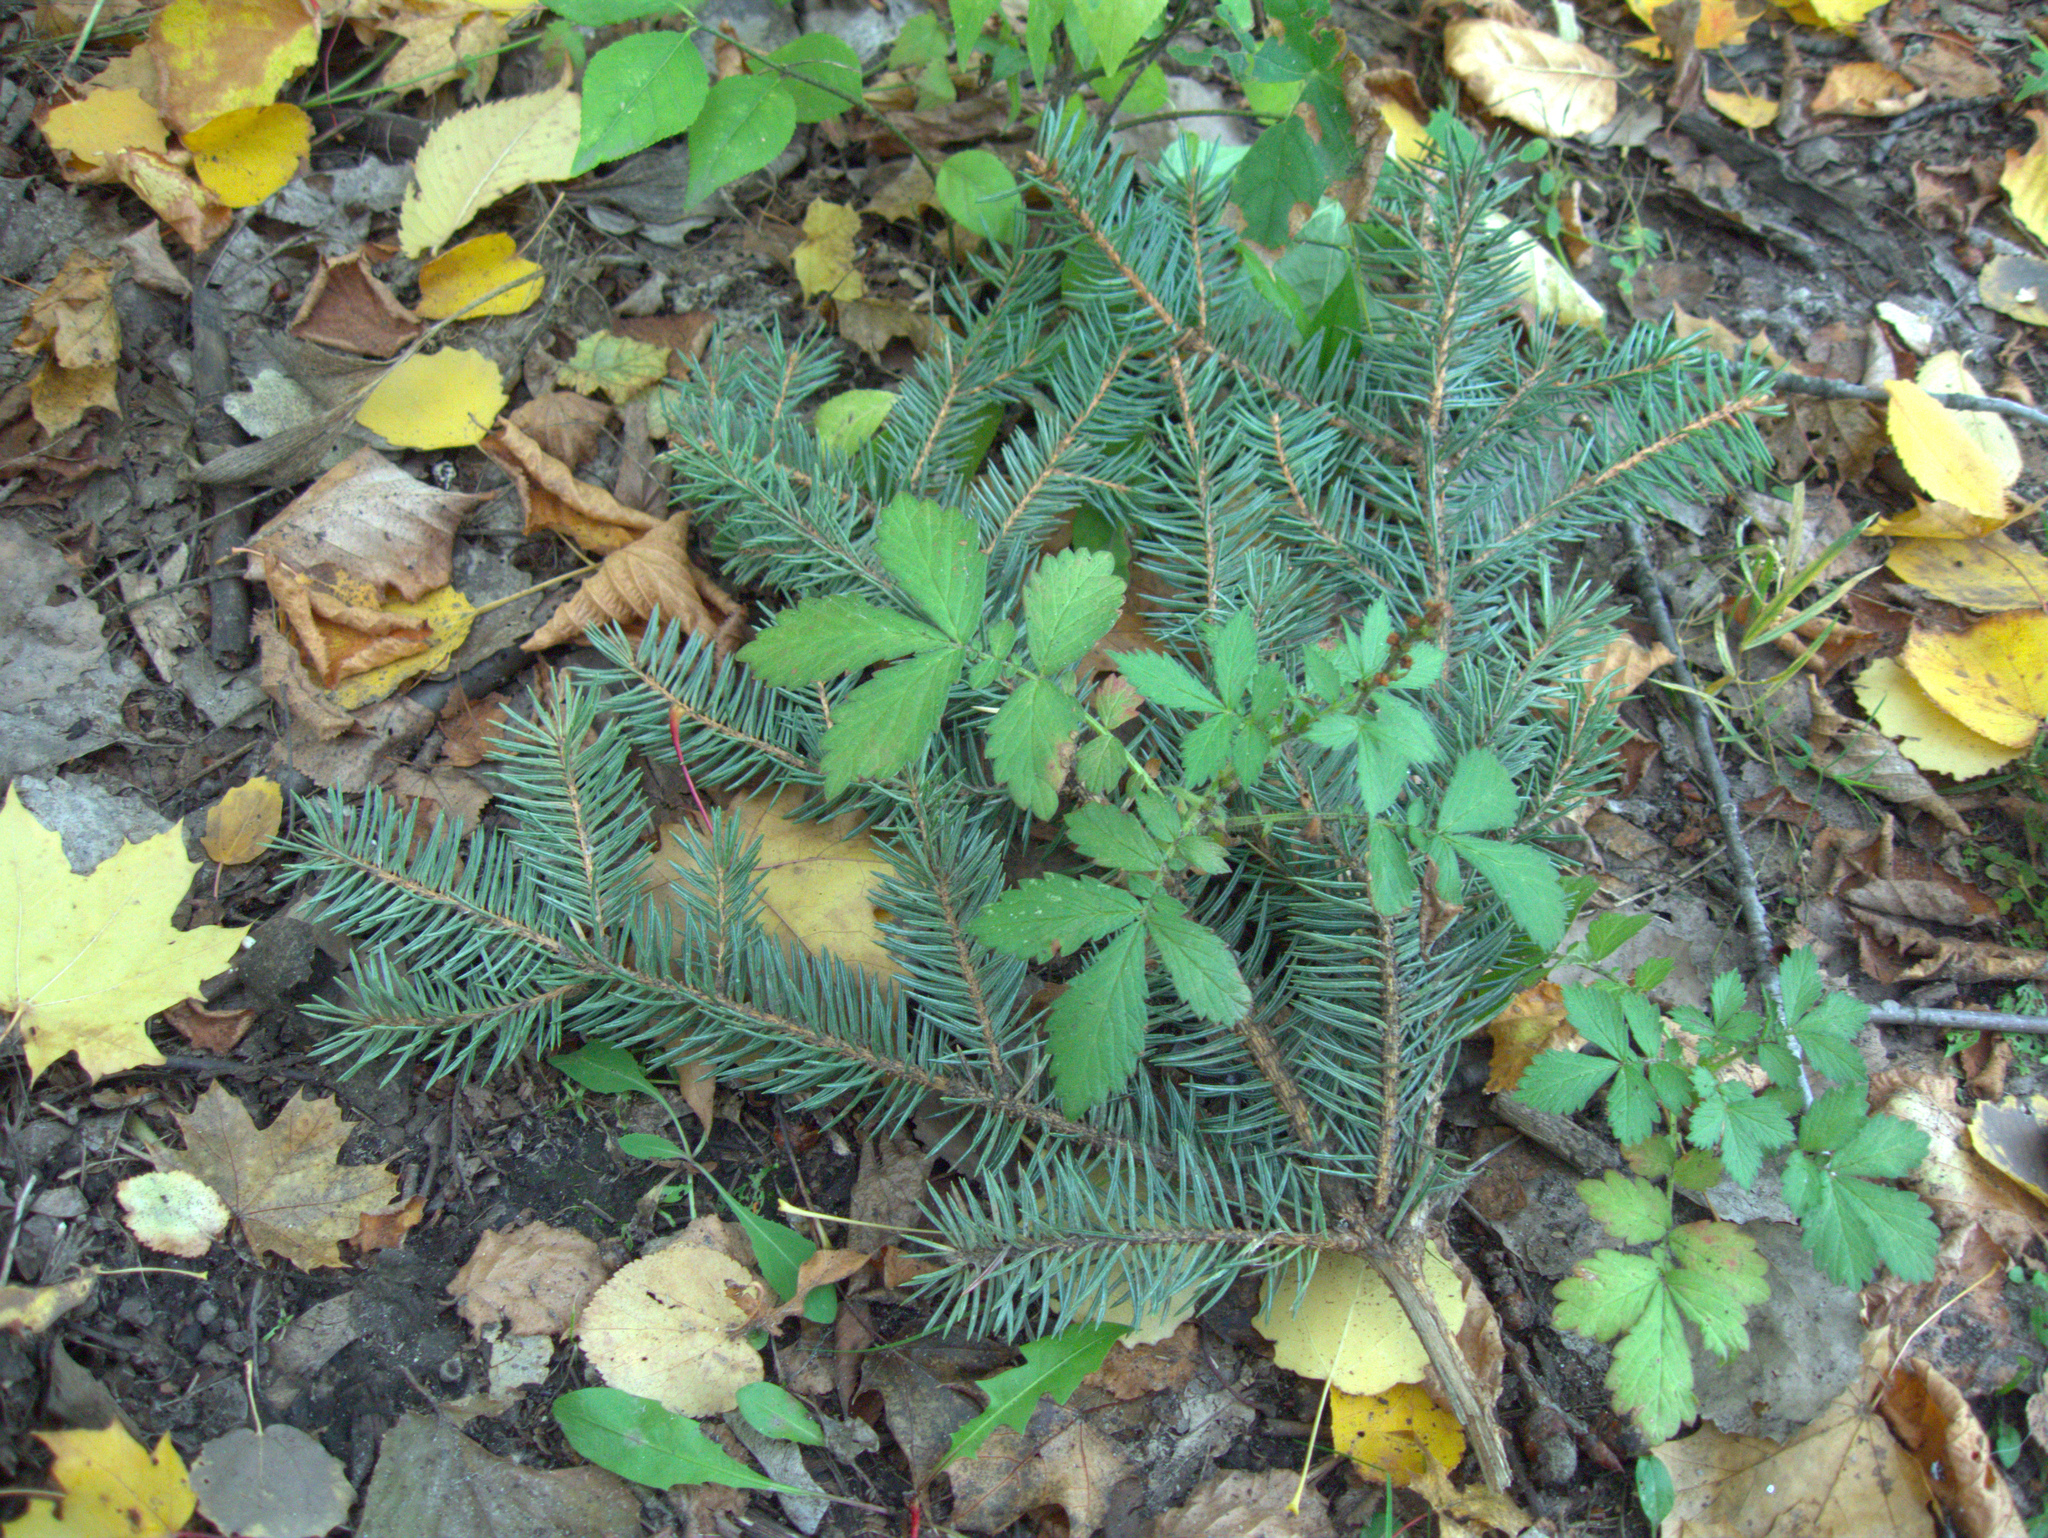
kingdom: Plantae
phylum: Tracheophyta
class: Magnoliopsida
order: Rosales
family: Rosaceae
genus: Agrimonia
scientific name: Agrimonia pilosa
